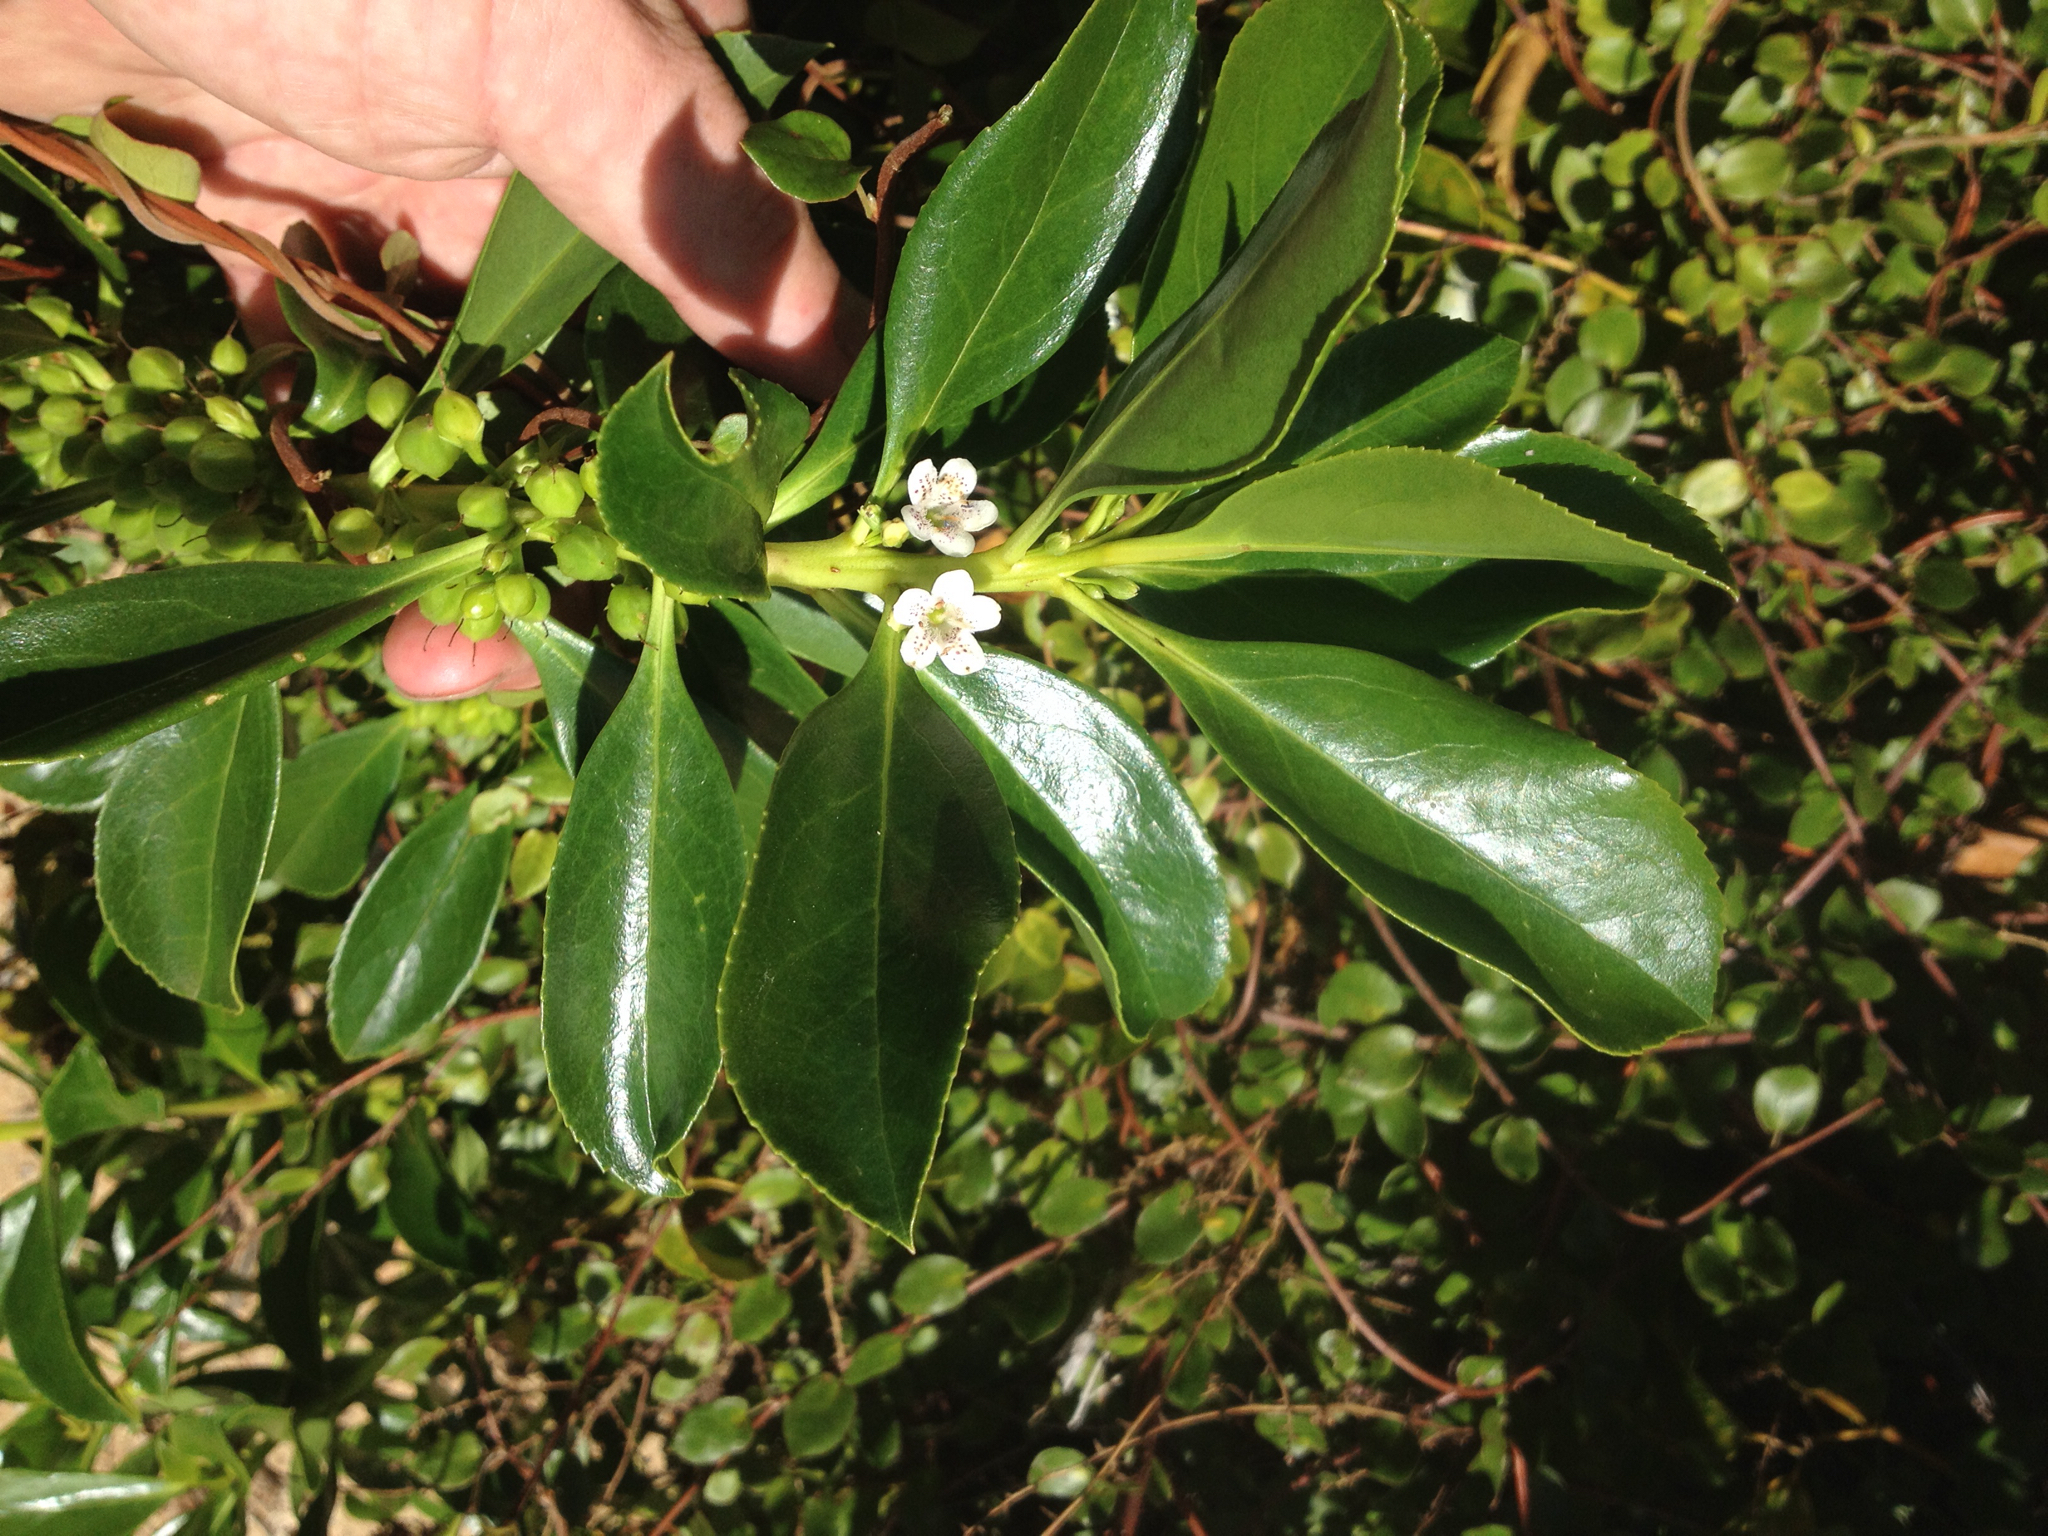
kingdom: Plantae
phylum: Tracheophyta
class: Magnoliopsida
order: Lamiales
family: Scrophulariaceae
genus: Myoporum
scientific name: Myoporum
